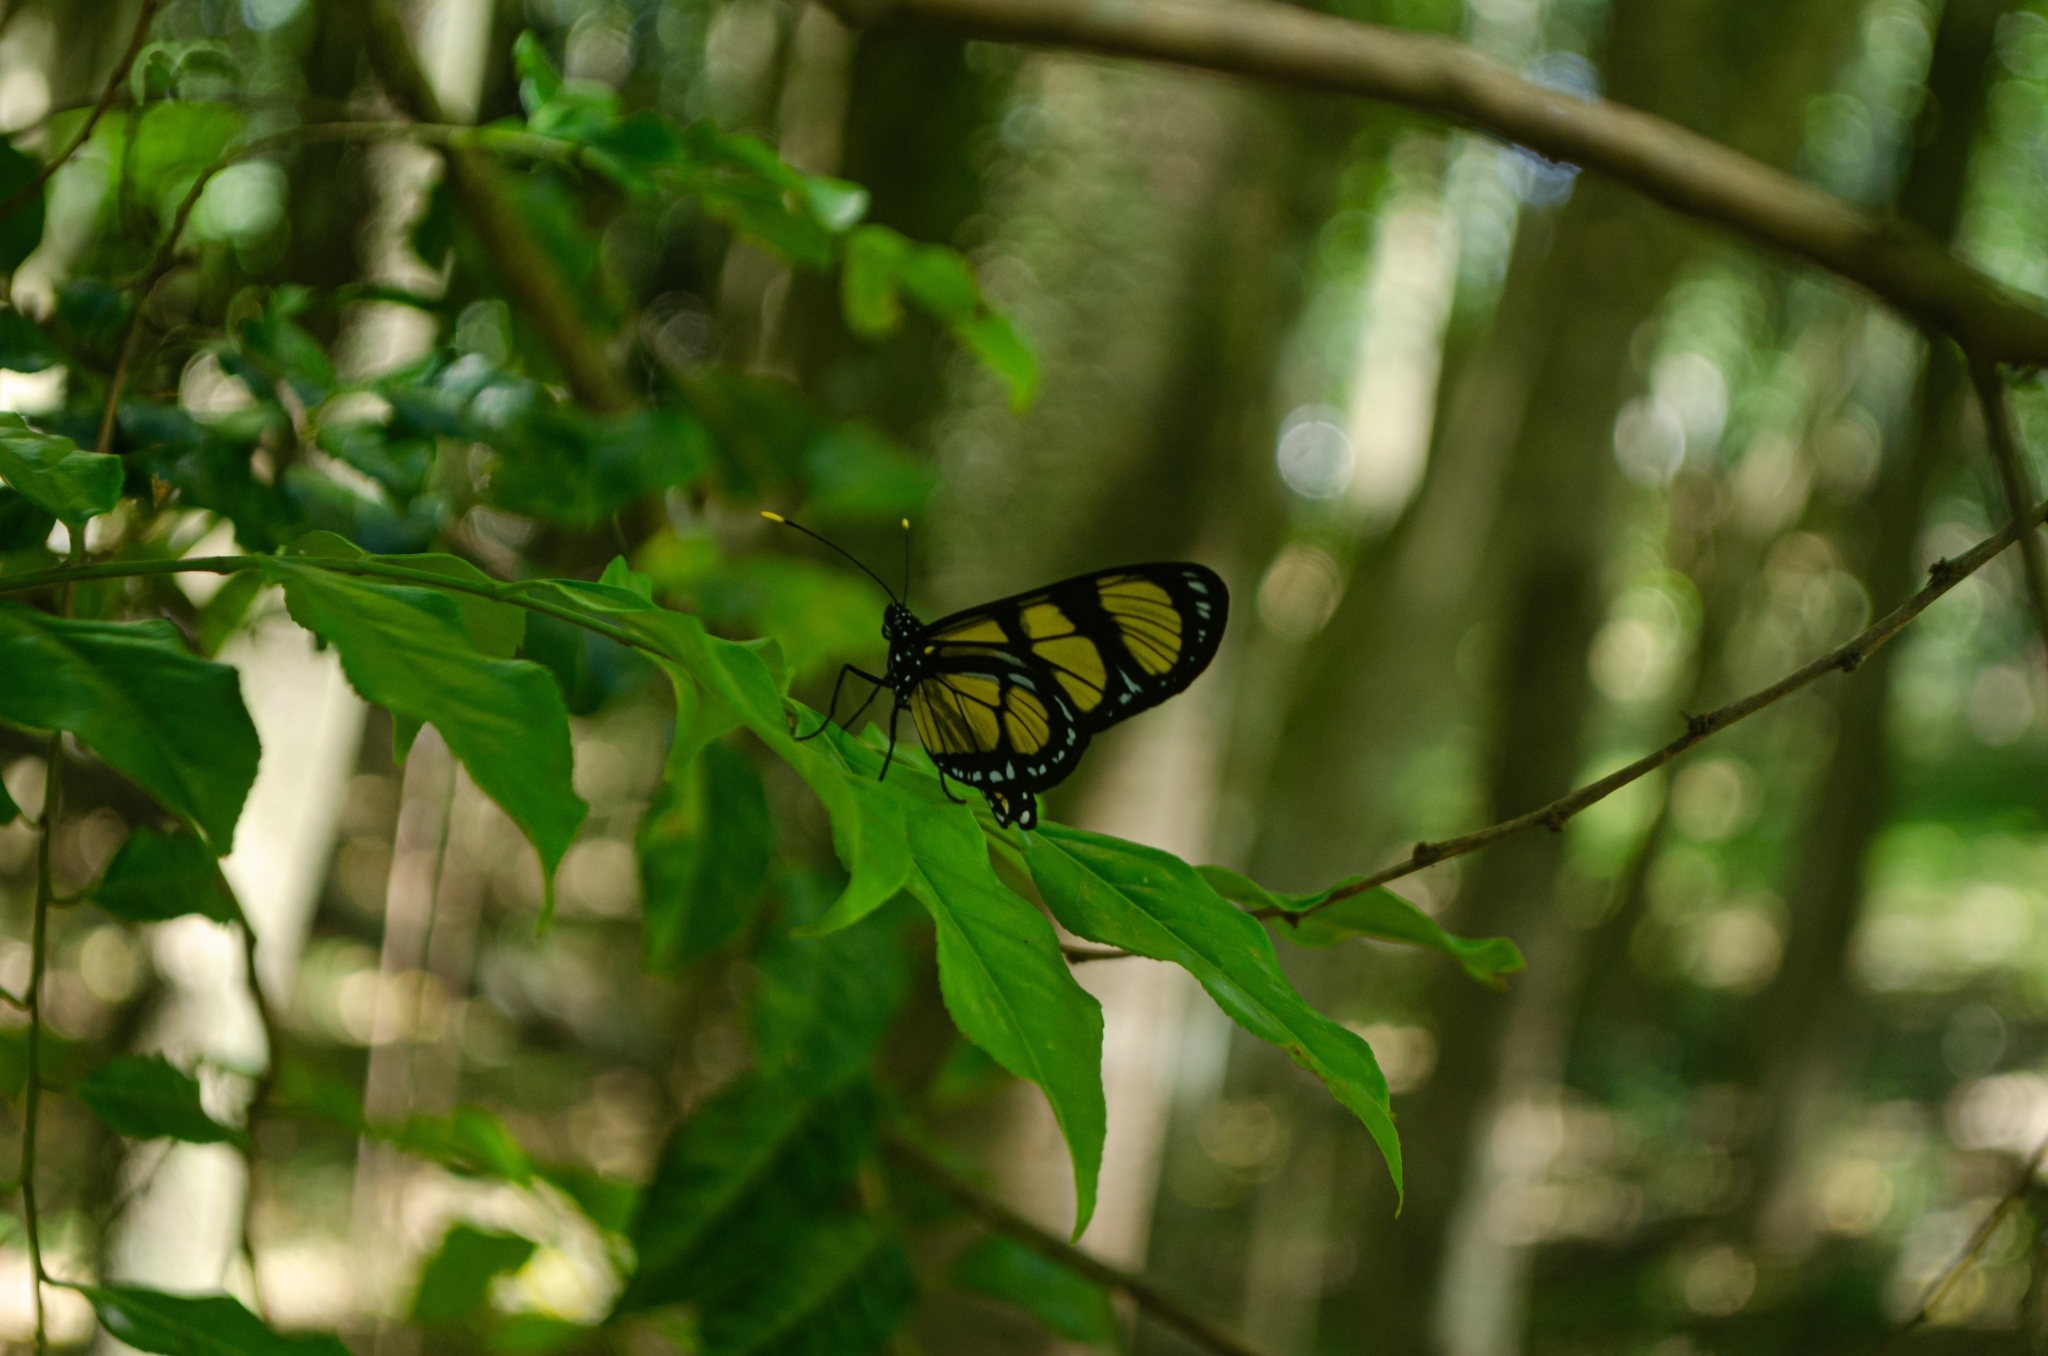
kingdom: Animalia
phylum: Arthropoda
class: Insecta
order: Lepidoptera
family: Nymphalidae
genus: Methona
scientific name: Methona themisto
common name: Themisto amberwing
